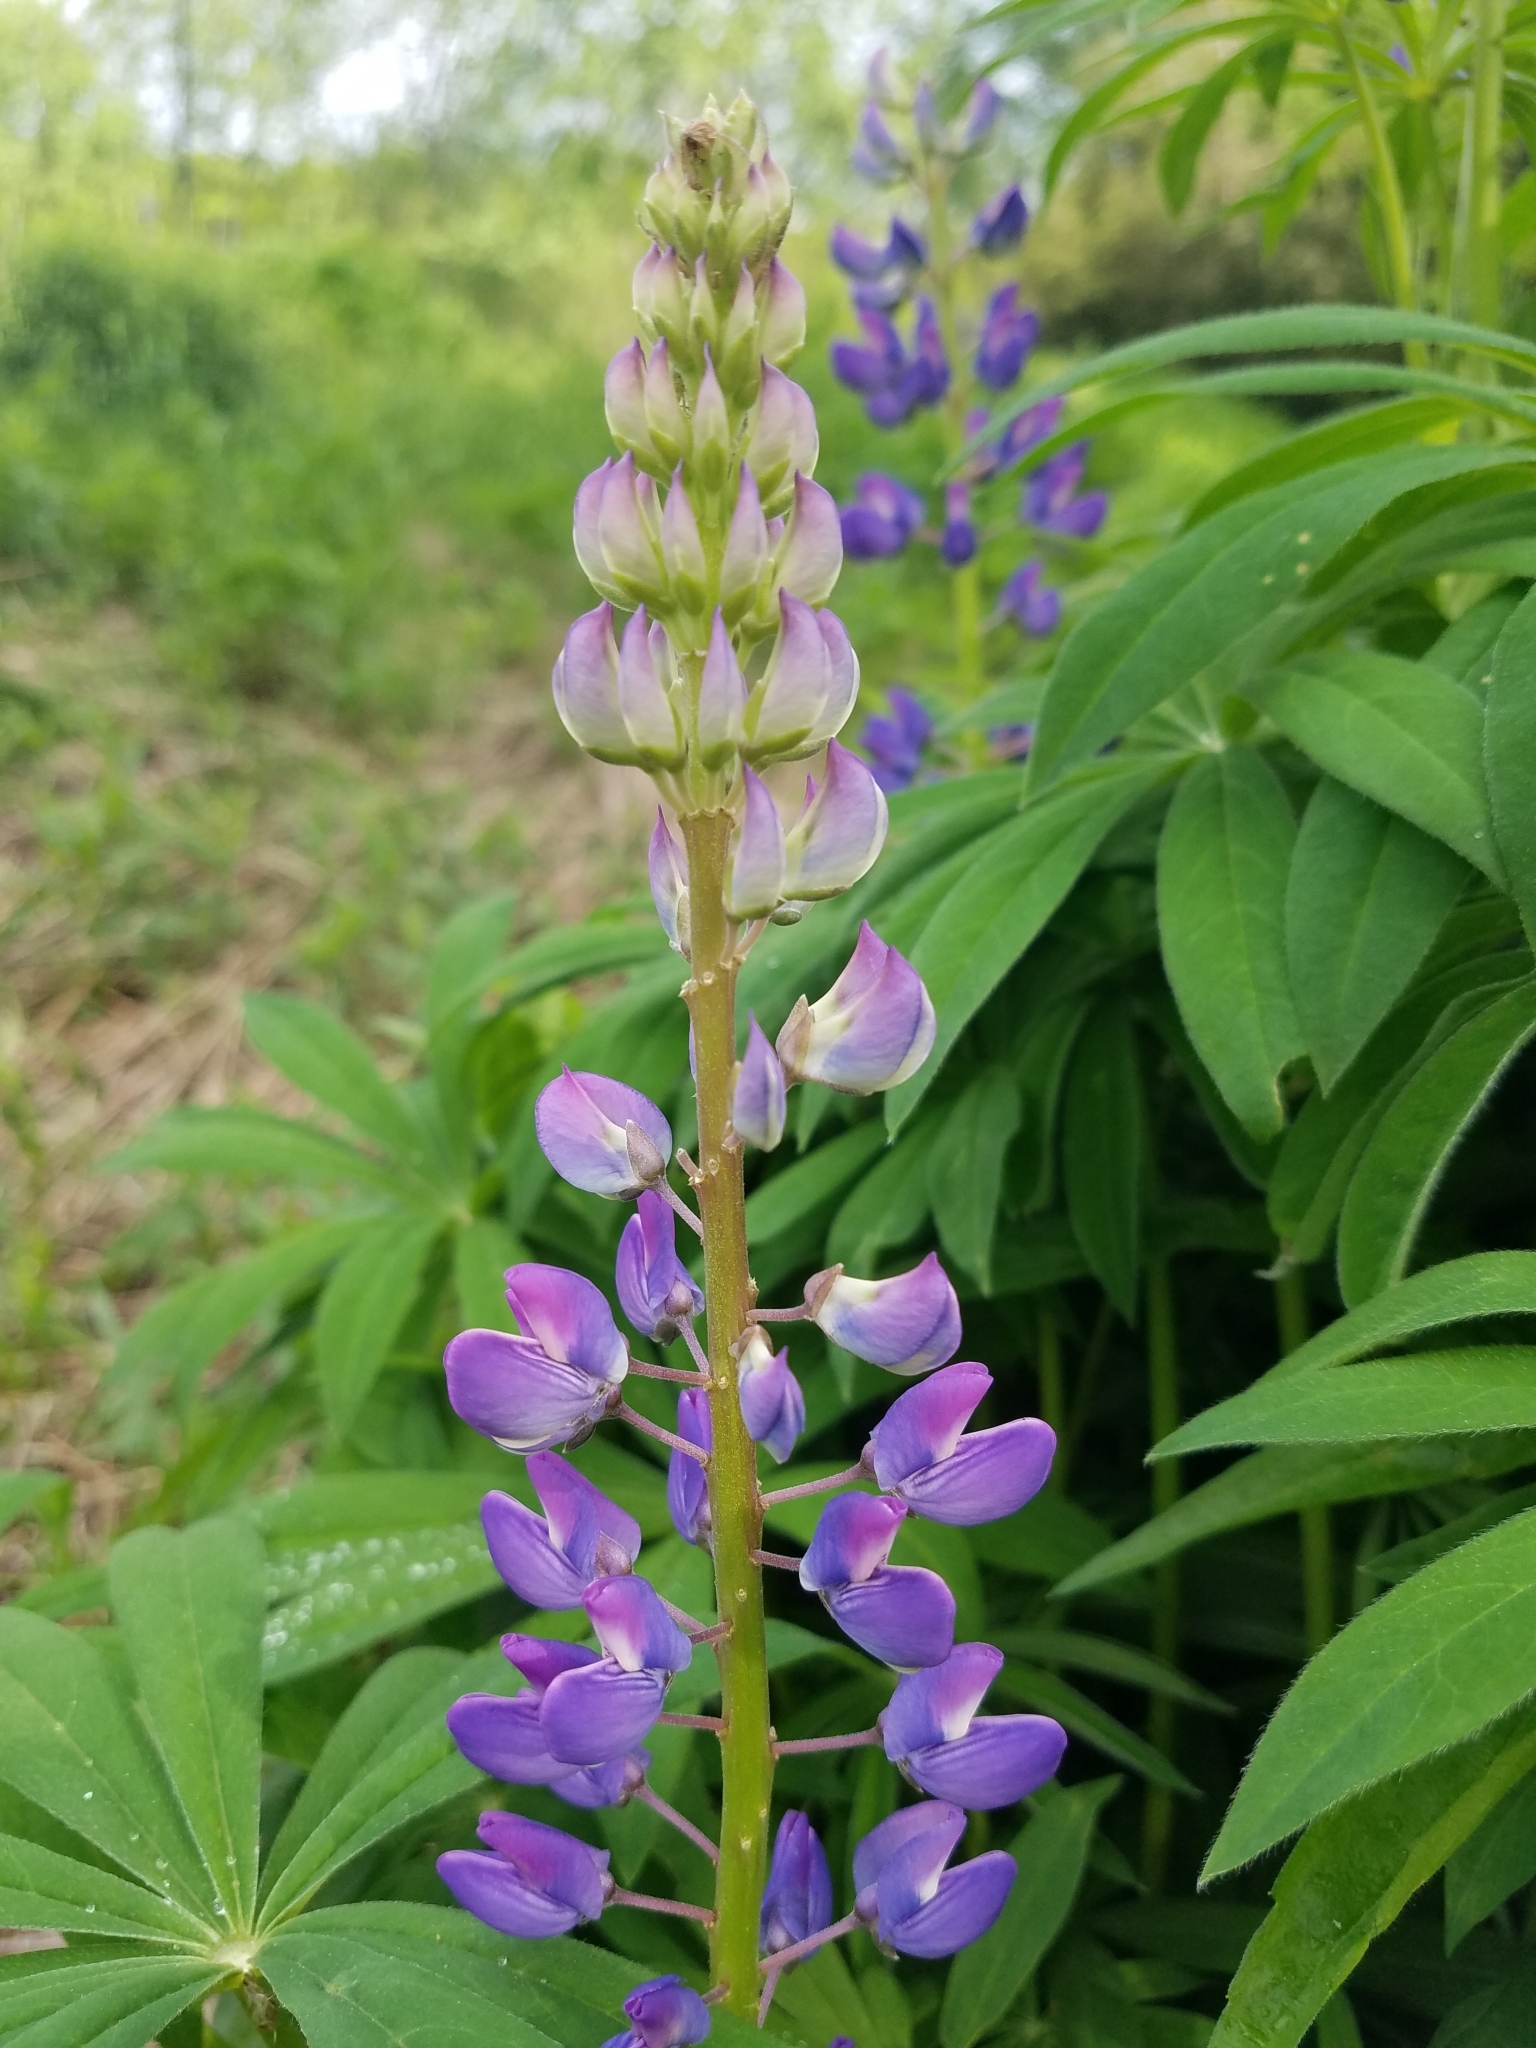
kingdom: Plantae
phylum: Tracheophyta
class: Magnoliopsida
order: Fabales
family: Fabaceae
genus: Lupinus
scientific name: Lupinus polyphyllus
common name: Garden lupin
